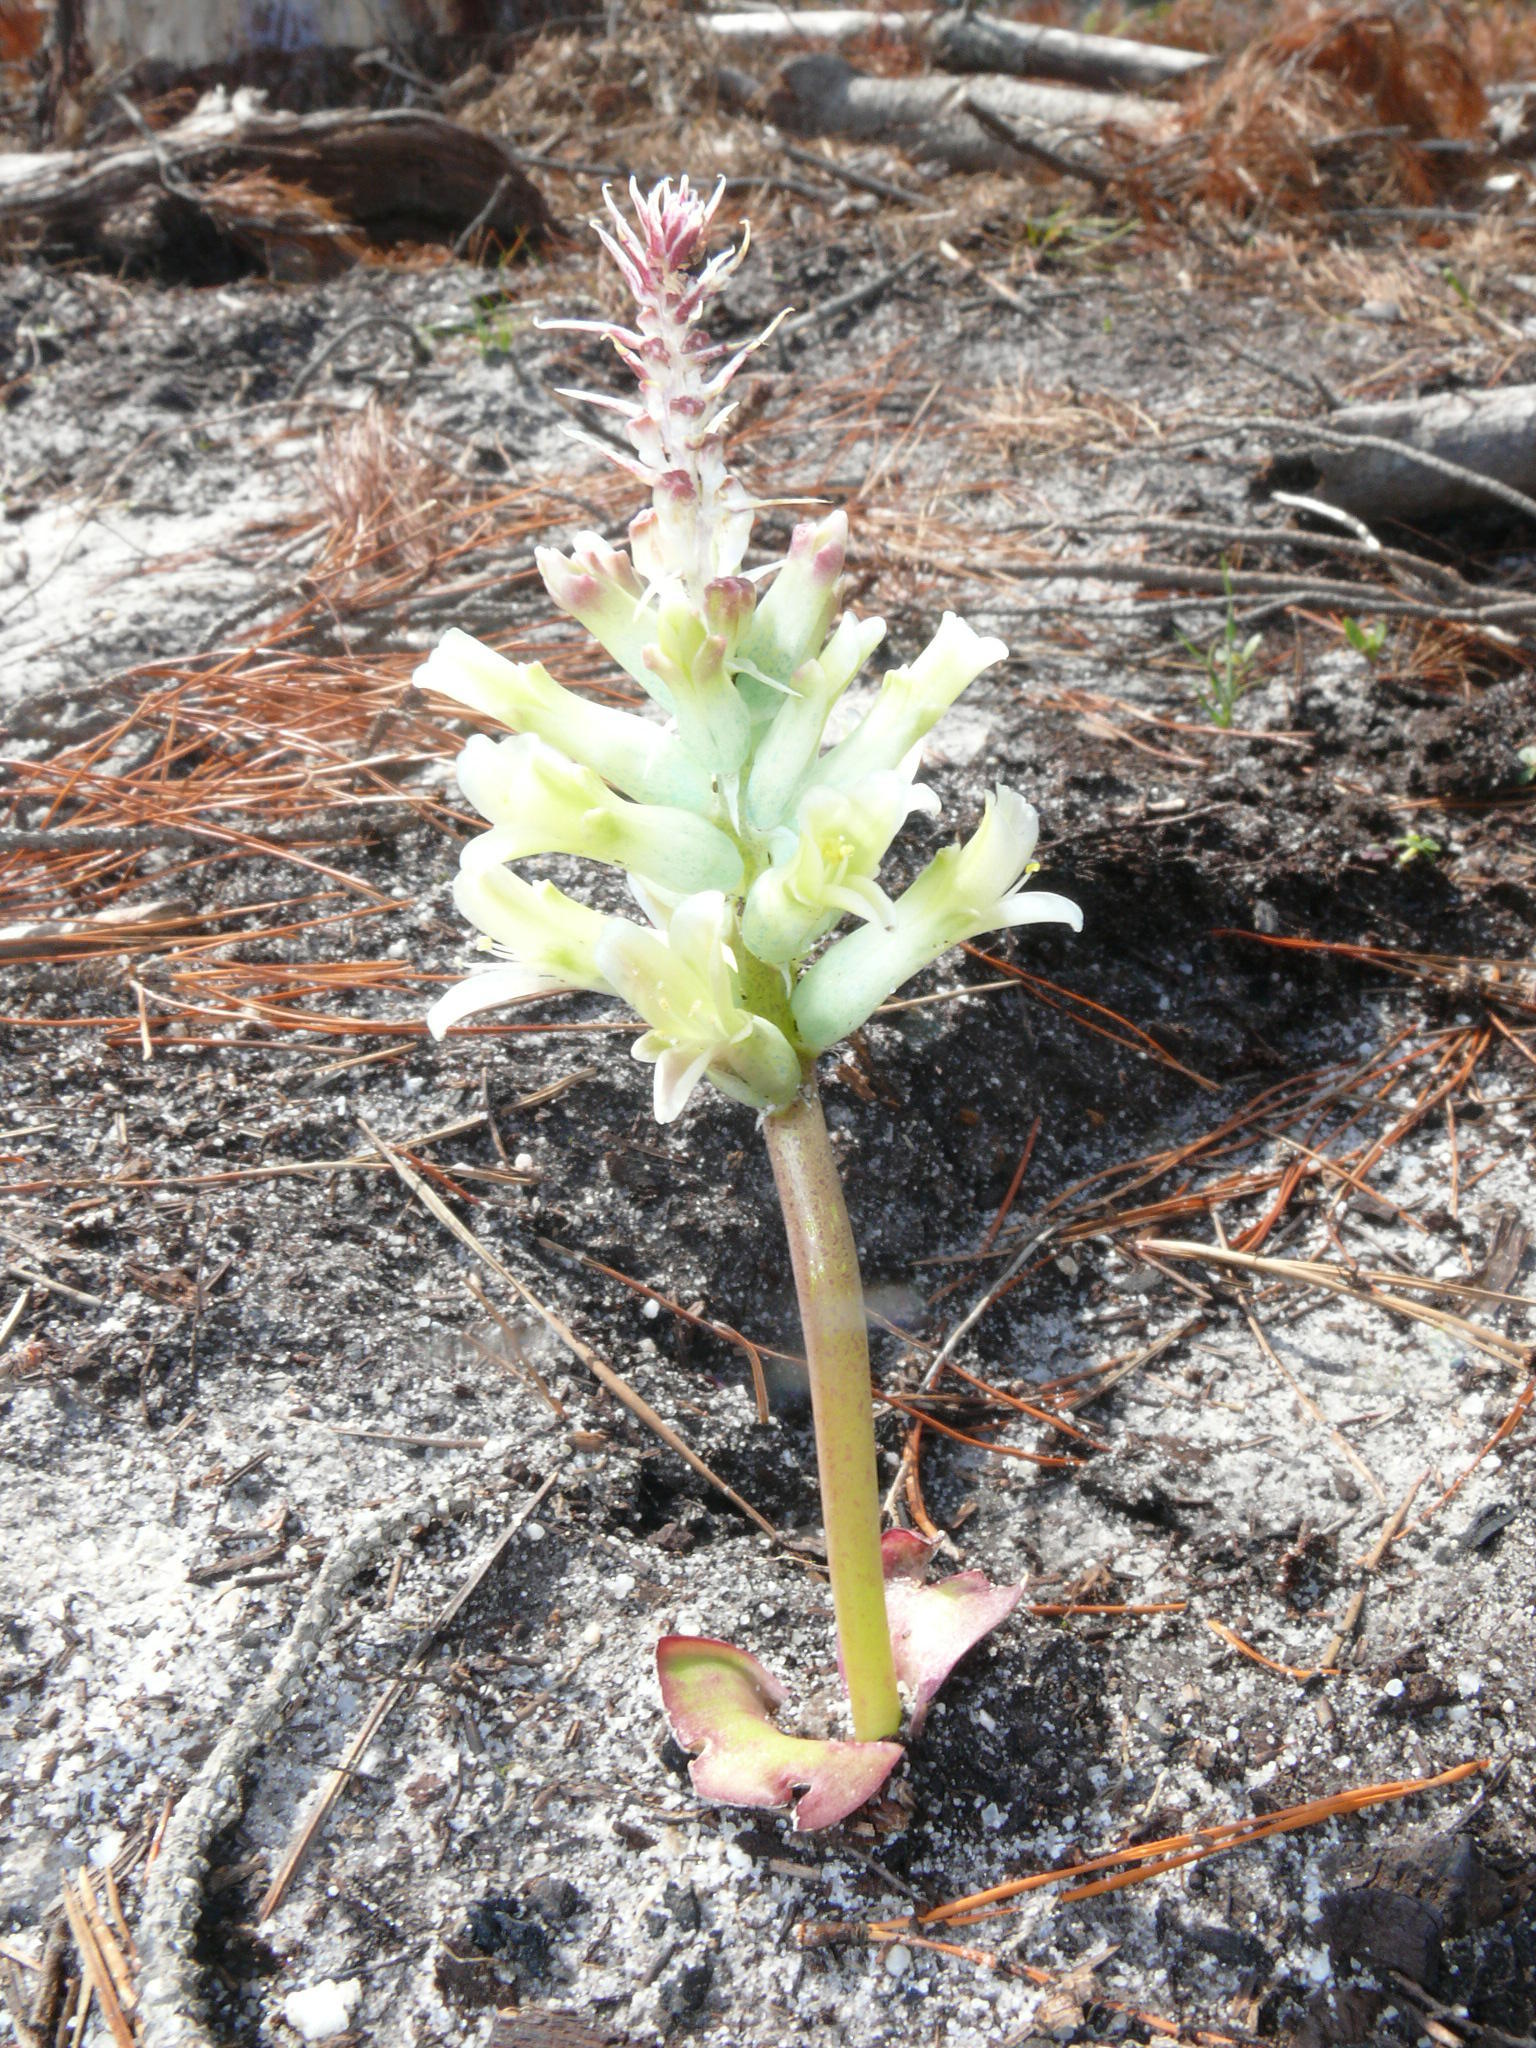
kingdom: Plantae
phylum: Tracheophyta
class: Liliopsida
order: Asparagales
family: Asparagaceae
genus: Lachenalia
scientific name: Lachenalia orchioides
